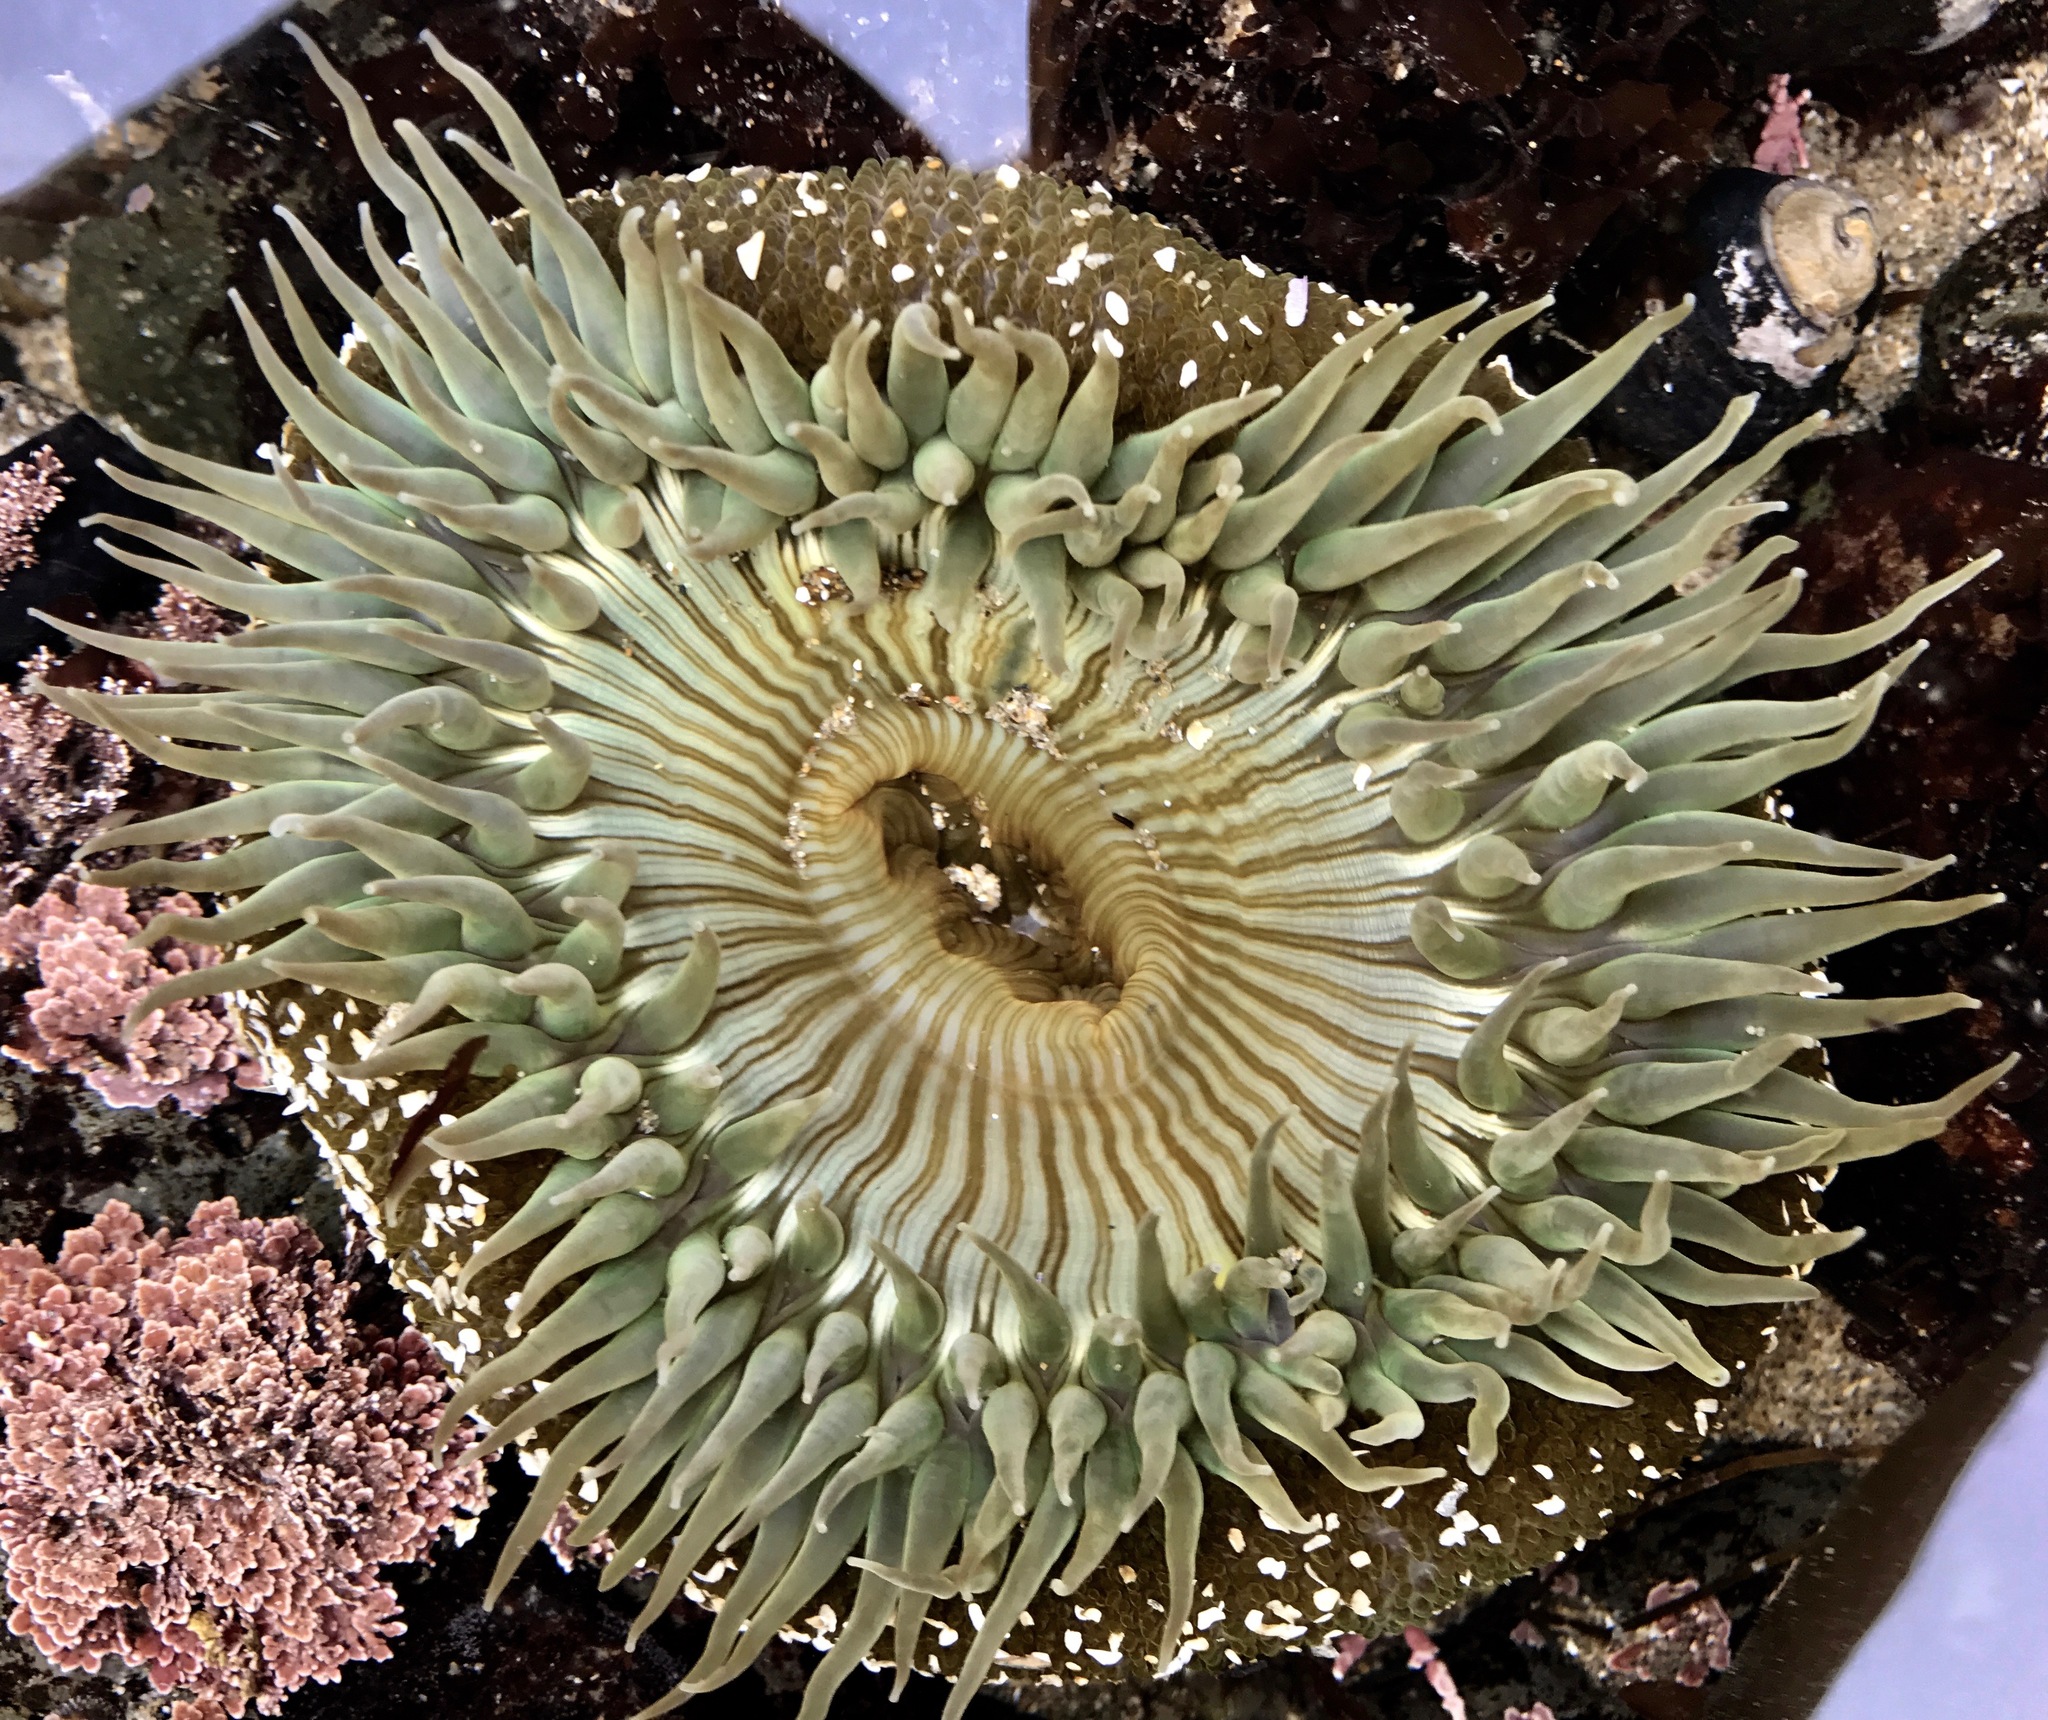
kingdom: Animalia
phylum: Cnidaria
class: Anthozoa
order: Actiniaria
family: Actiniidae
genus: Anthopleura
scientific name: Anthopleura sola
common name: Sun anemone
